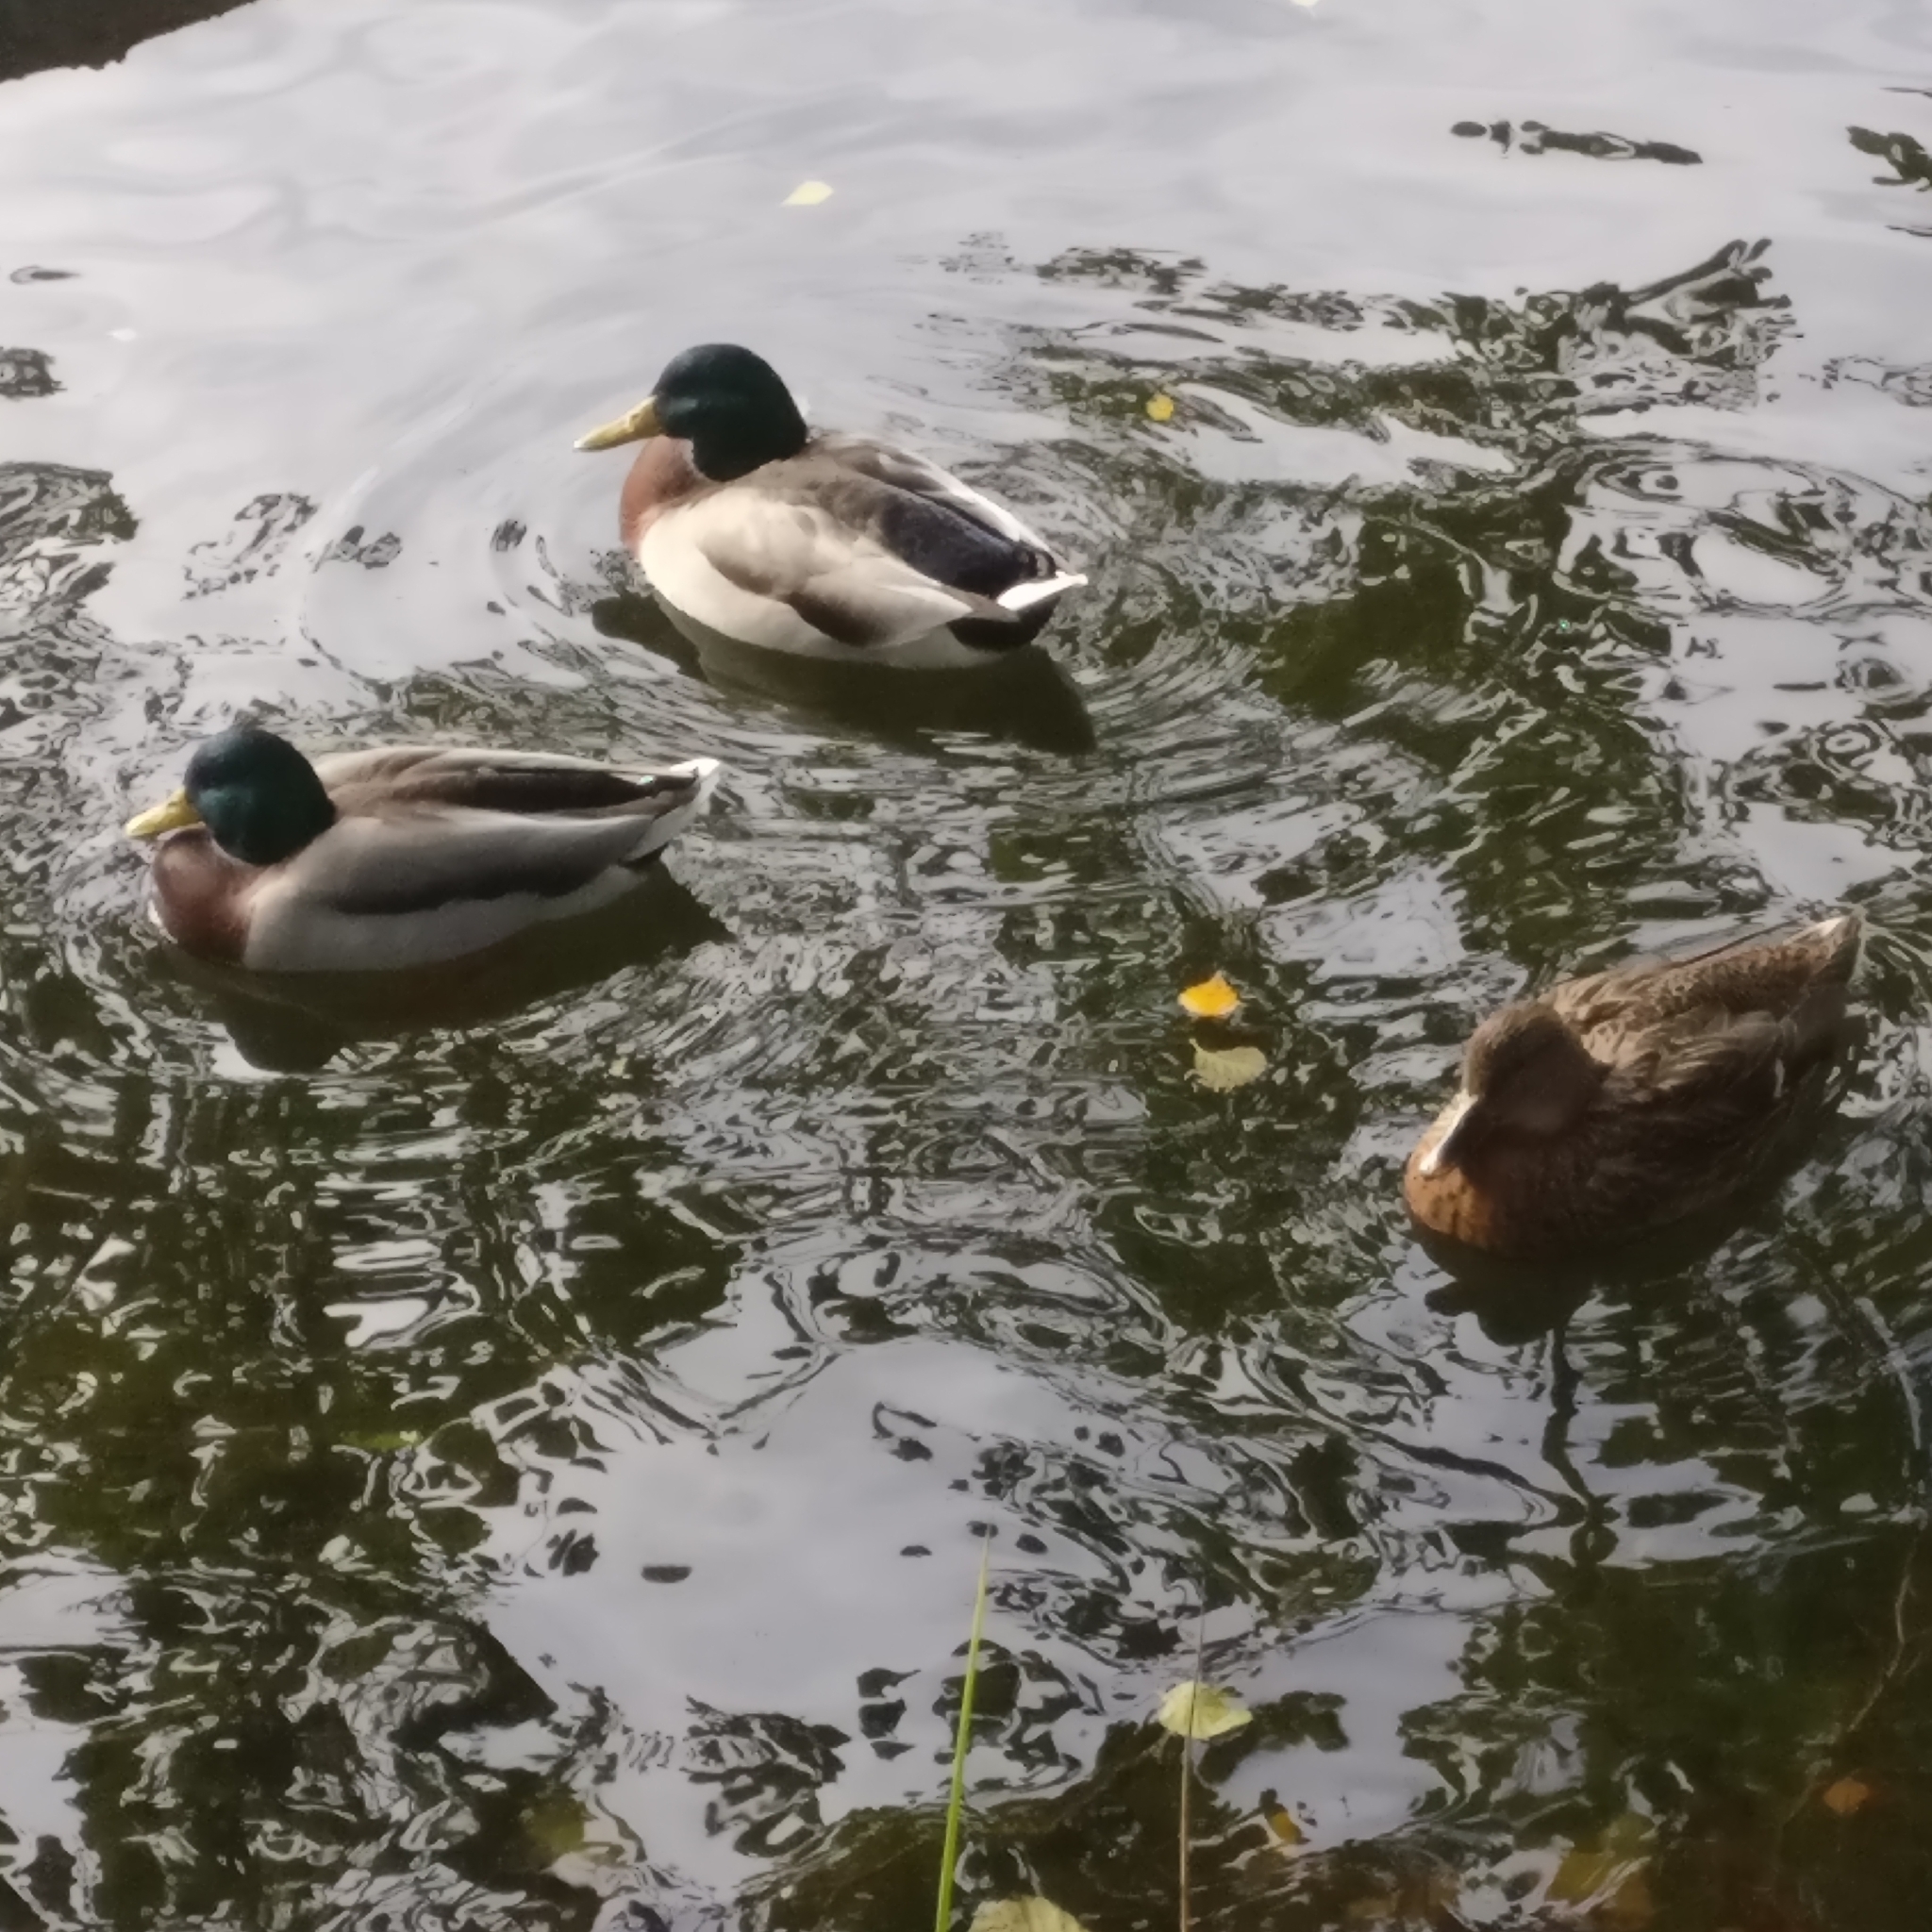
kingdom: Animalia
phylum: Chordata
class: Aves
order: Anseriformes
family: Anatidae
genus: Anas
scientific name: Anas platyrhynchos
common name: Mallard
